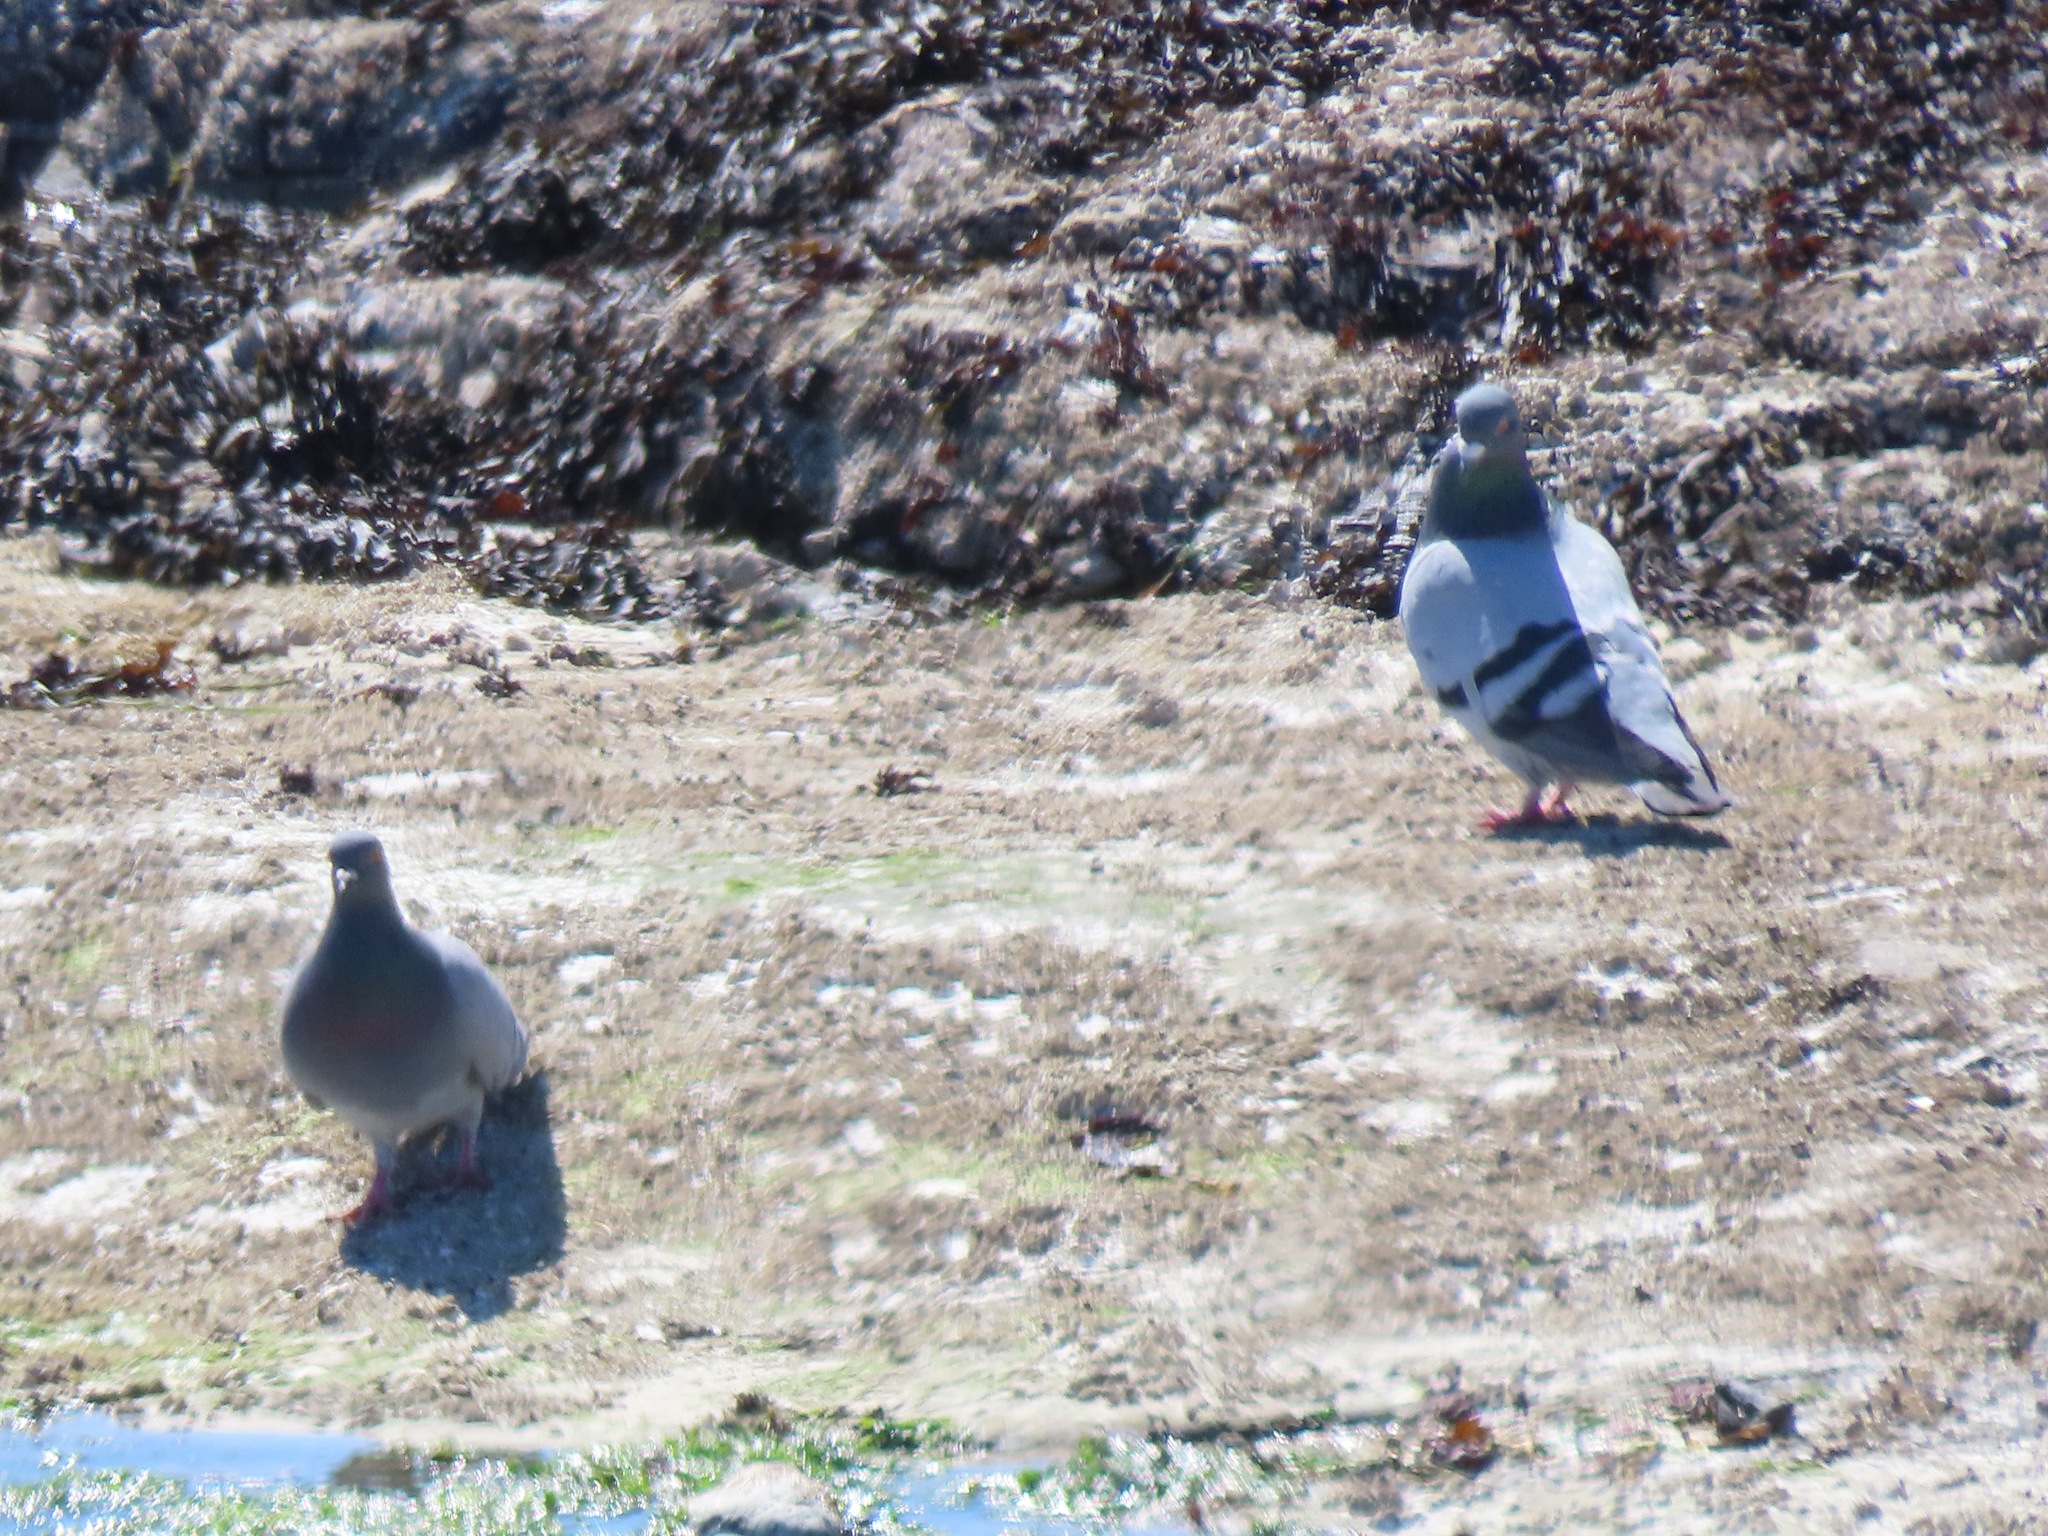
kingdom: Animalia
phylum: Chordata
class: Aves
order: Columbiformes
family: Columbidae
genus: Columba
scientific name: Columba livia
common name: Rock pigeon
